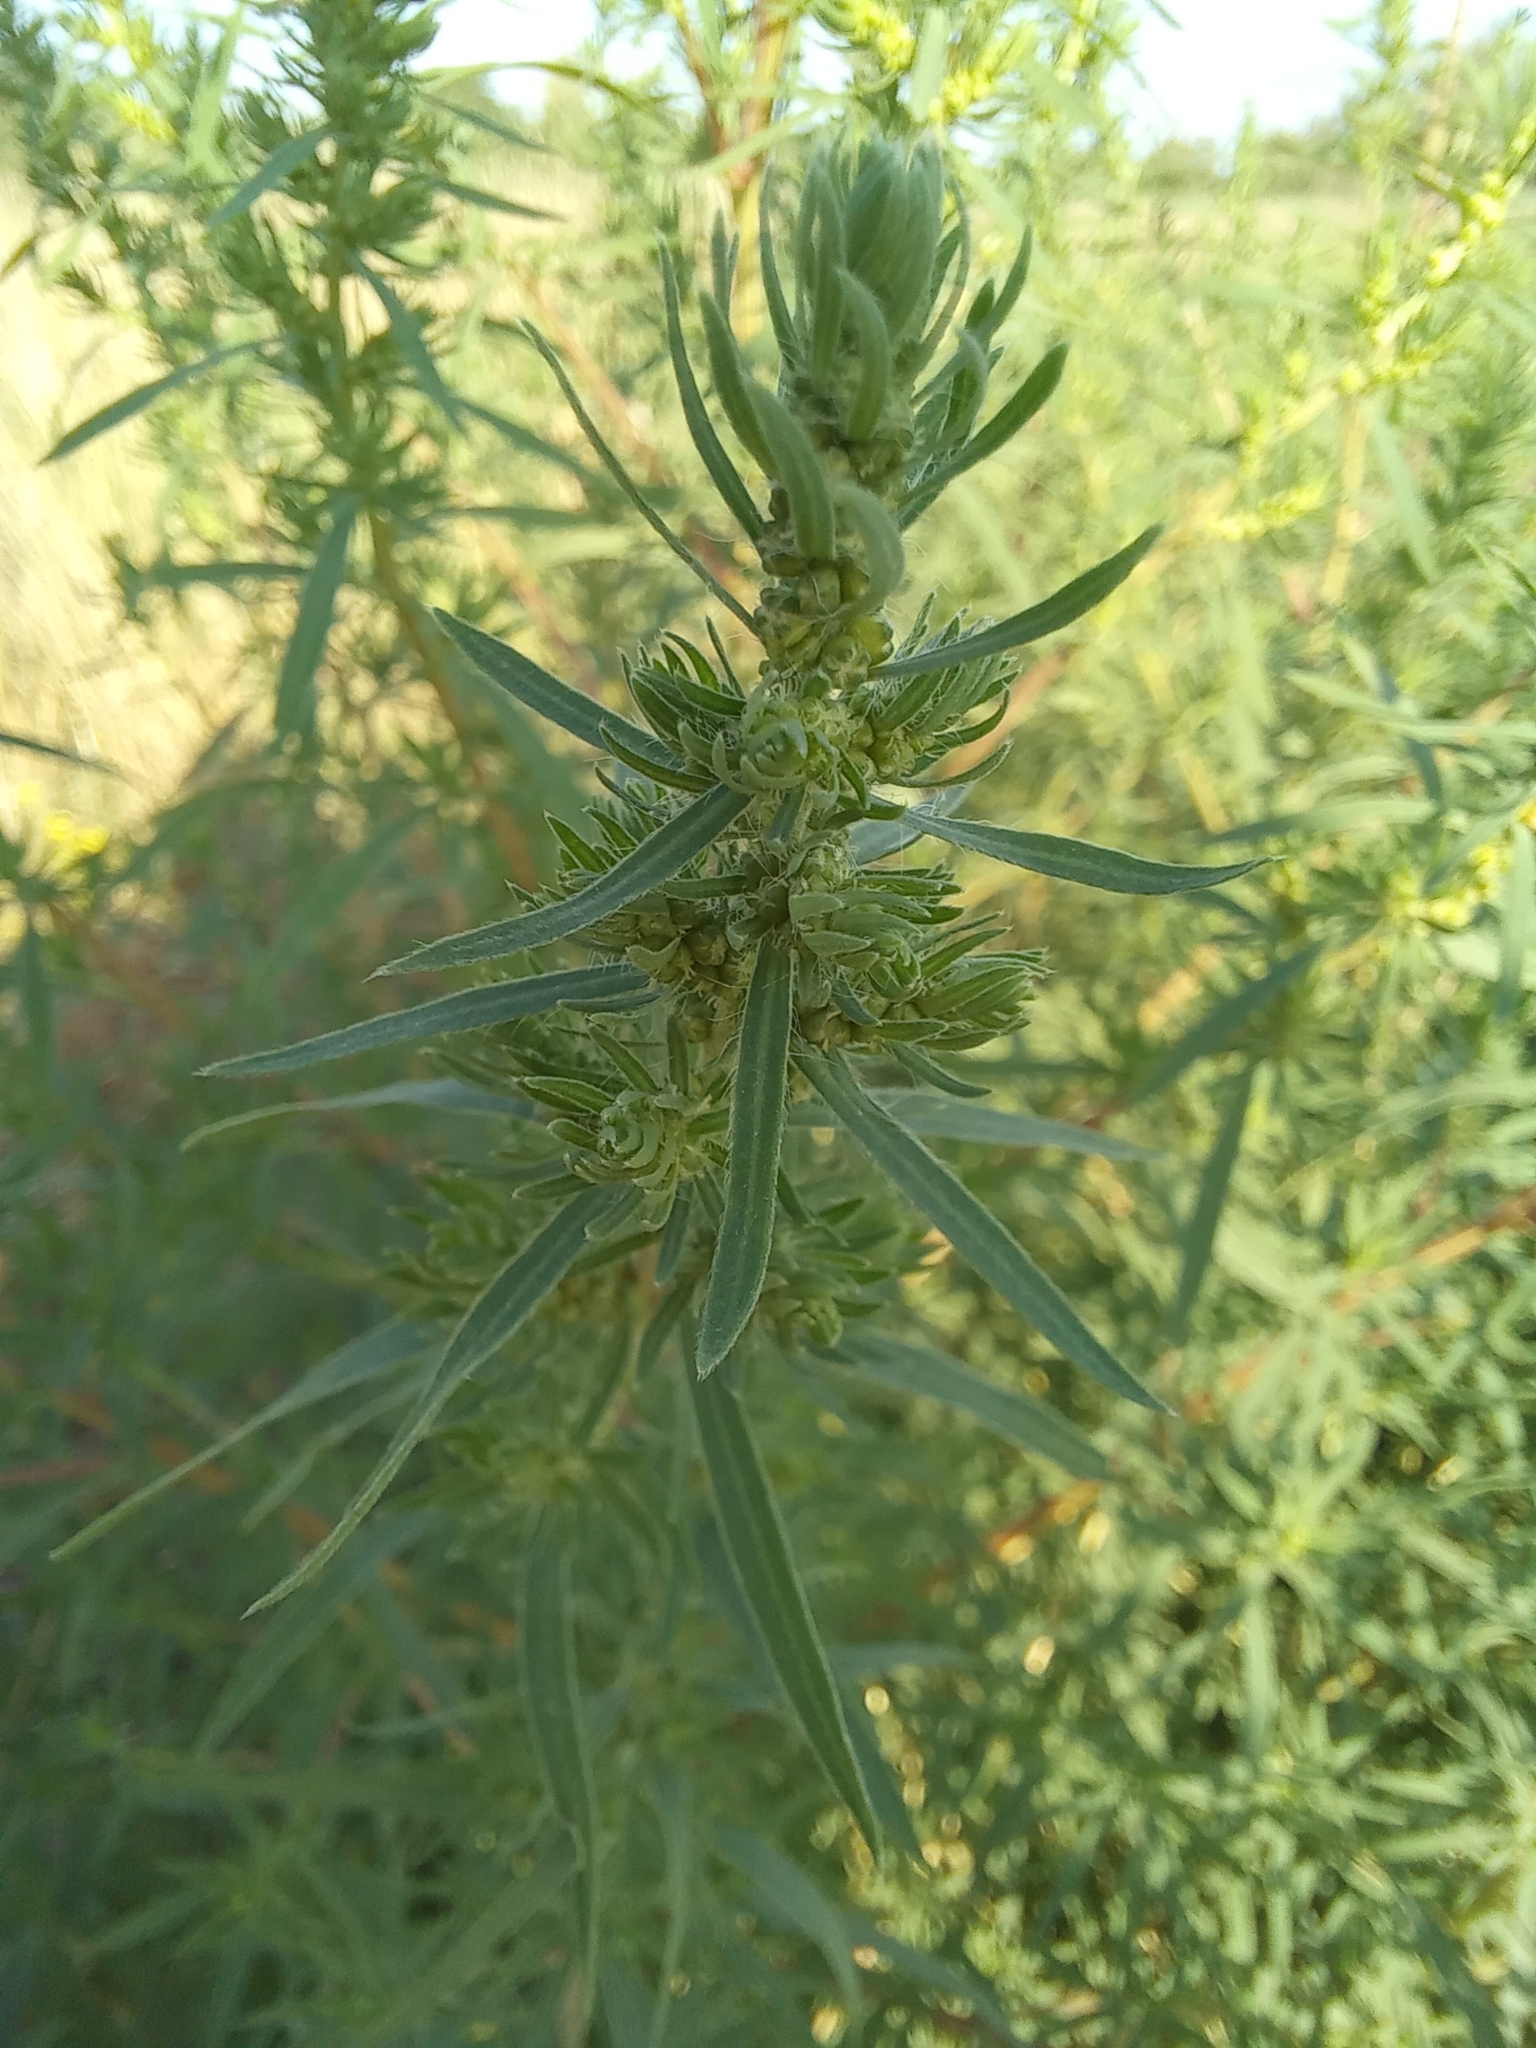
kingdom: Plantae
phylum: Tracheophyta
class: Magnoliopsida
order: Caryophyllales
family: Amaranthaceae
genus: Bassia
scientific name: Bassia scoparia
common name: Belvedere
